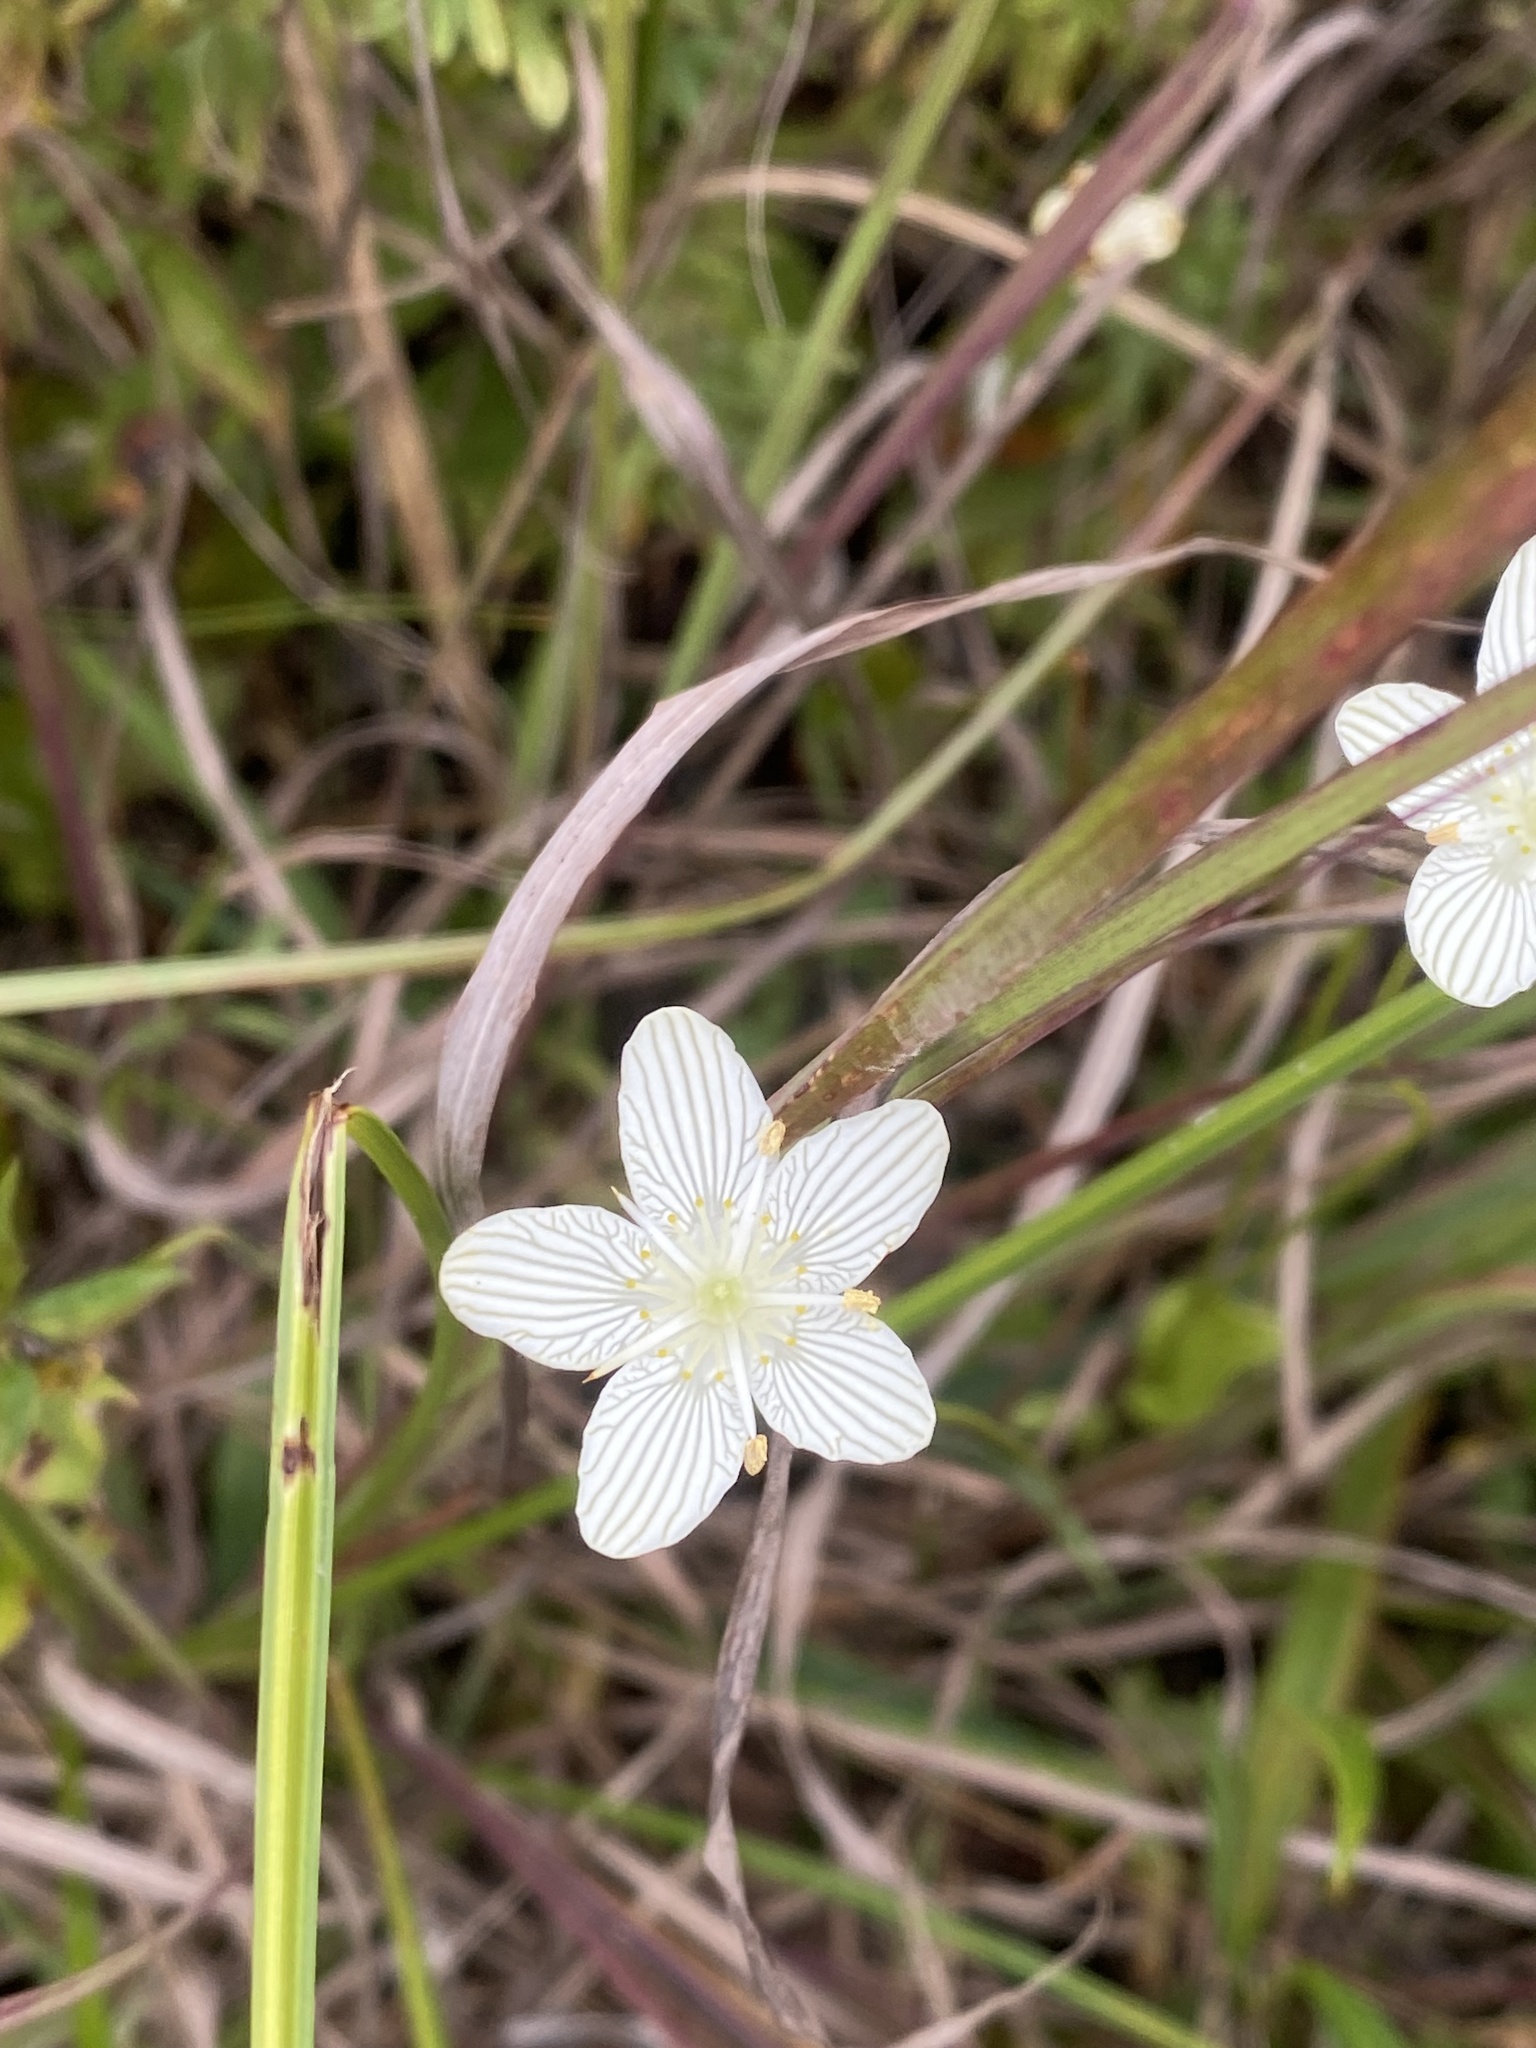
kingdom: Plantae
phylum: Tracheophyta
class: Magnoliopsida
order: Celastrales
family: Parnassiaceae
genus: Parnassia
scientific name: Parnassia glauca
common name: American grass-of-parnassus
